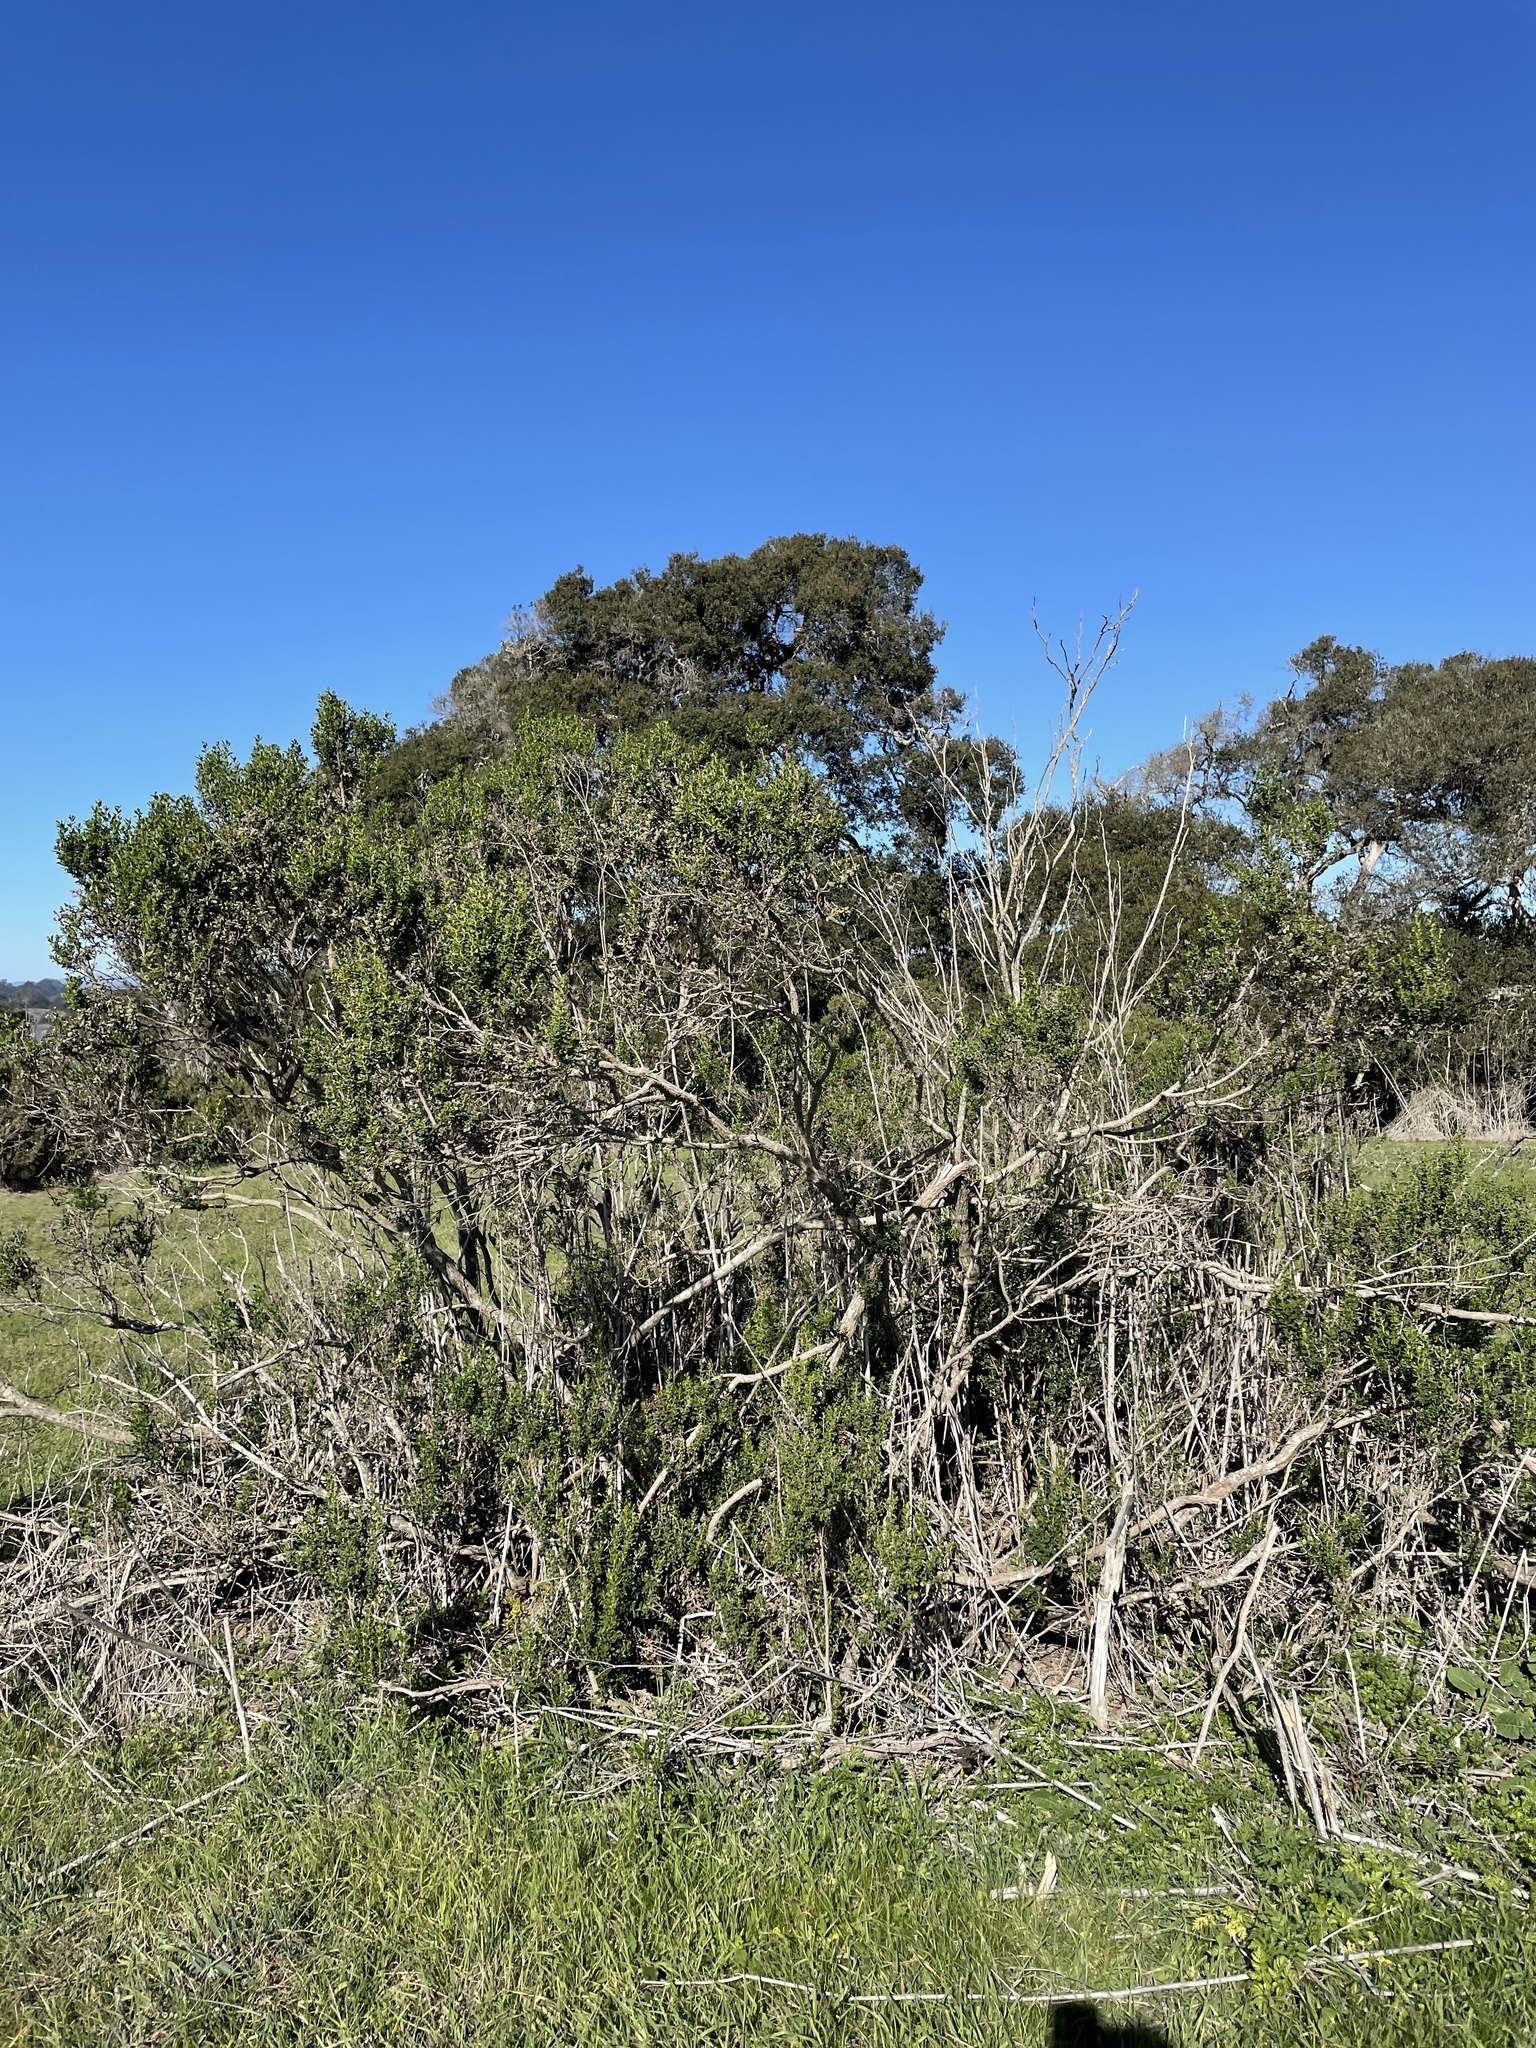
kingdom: Plantae
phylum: Tracheophyta
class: Magnoliopsida
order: Asterales
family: Asteraceae
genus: Baccharis
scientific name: Baccharis pilularis
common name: Coyotebrush
